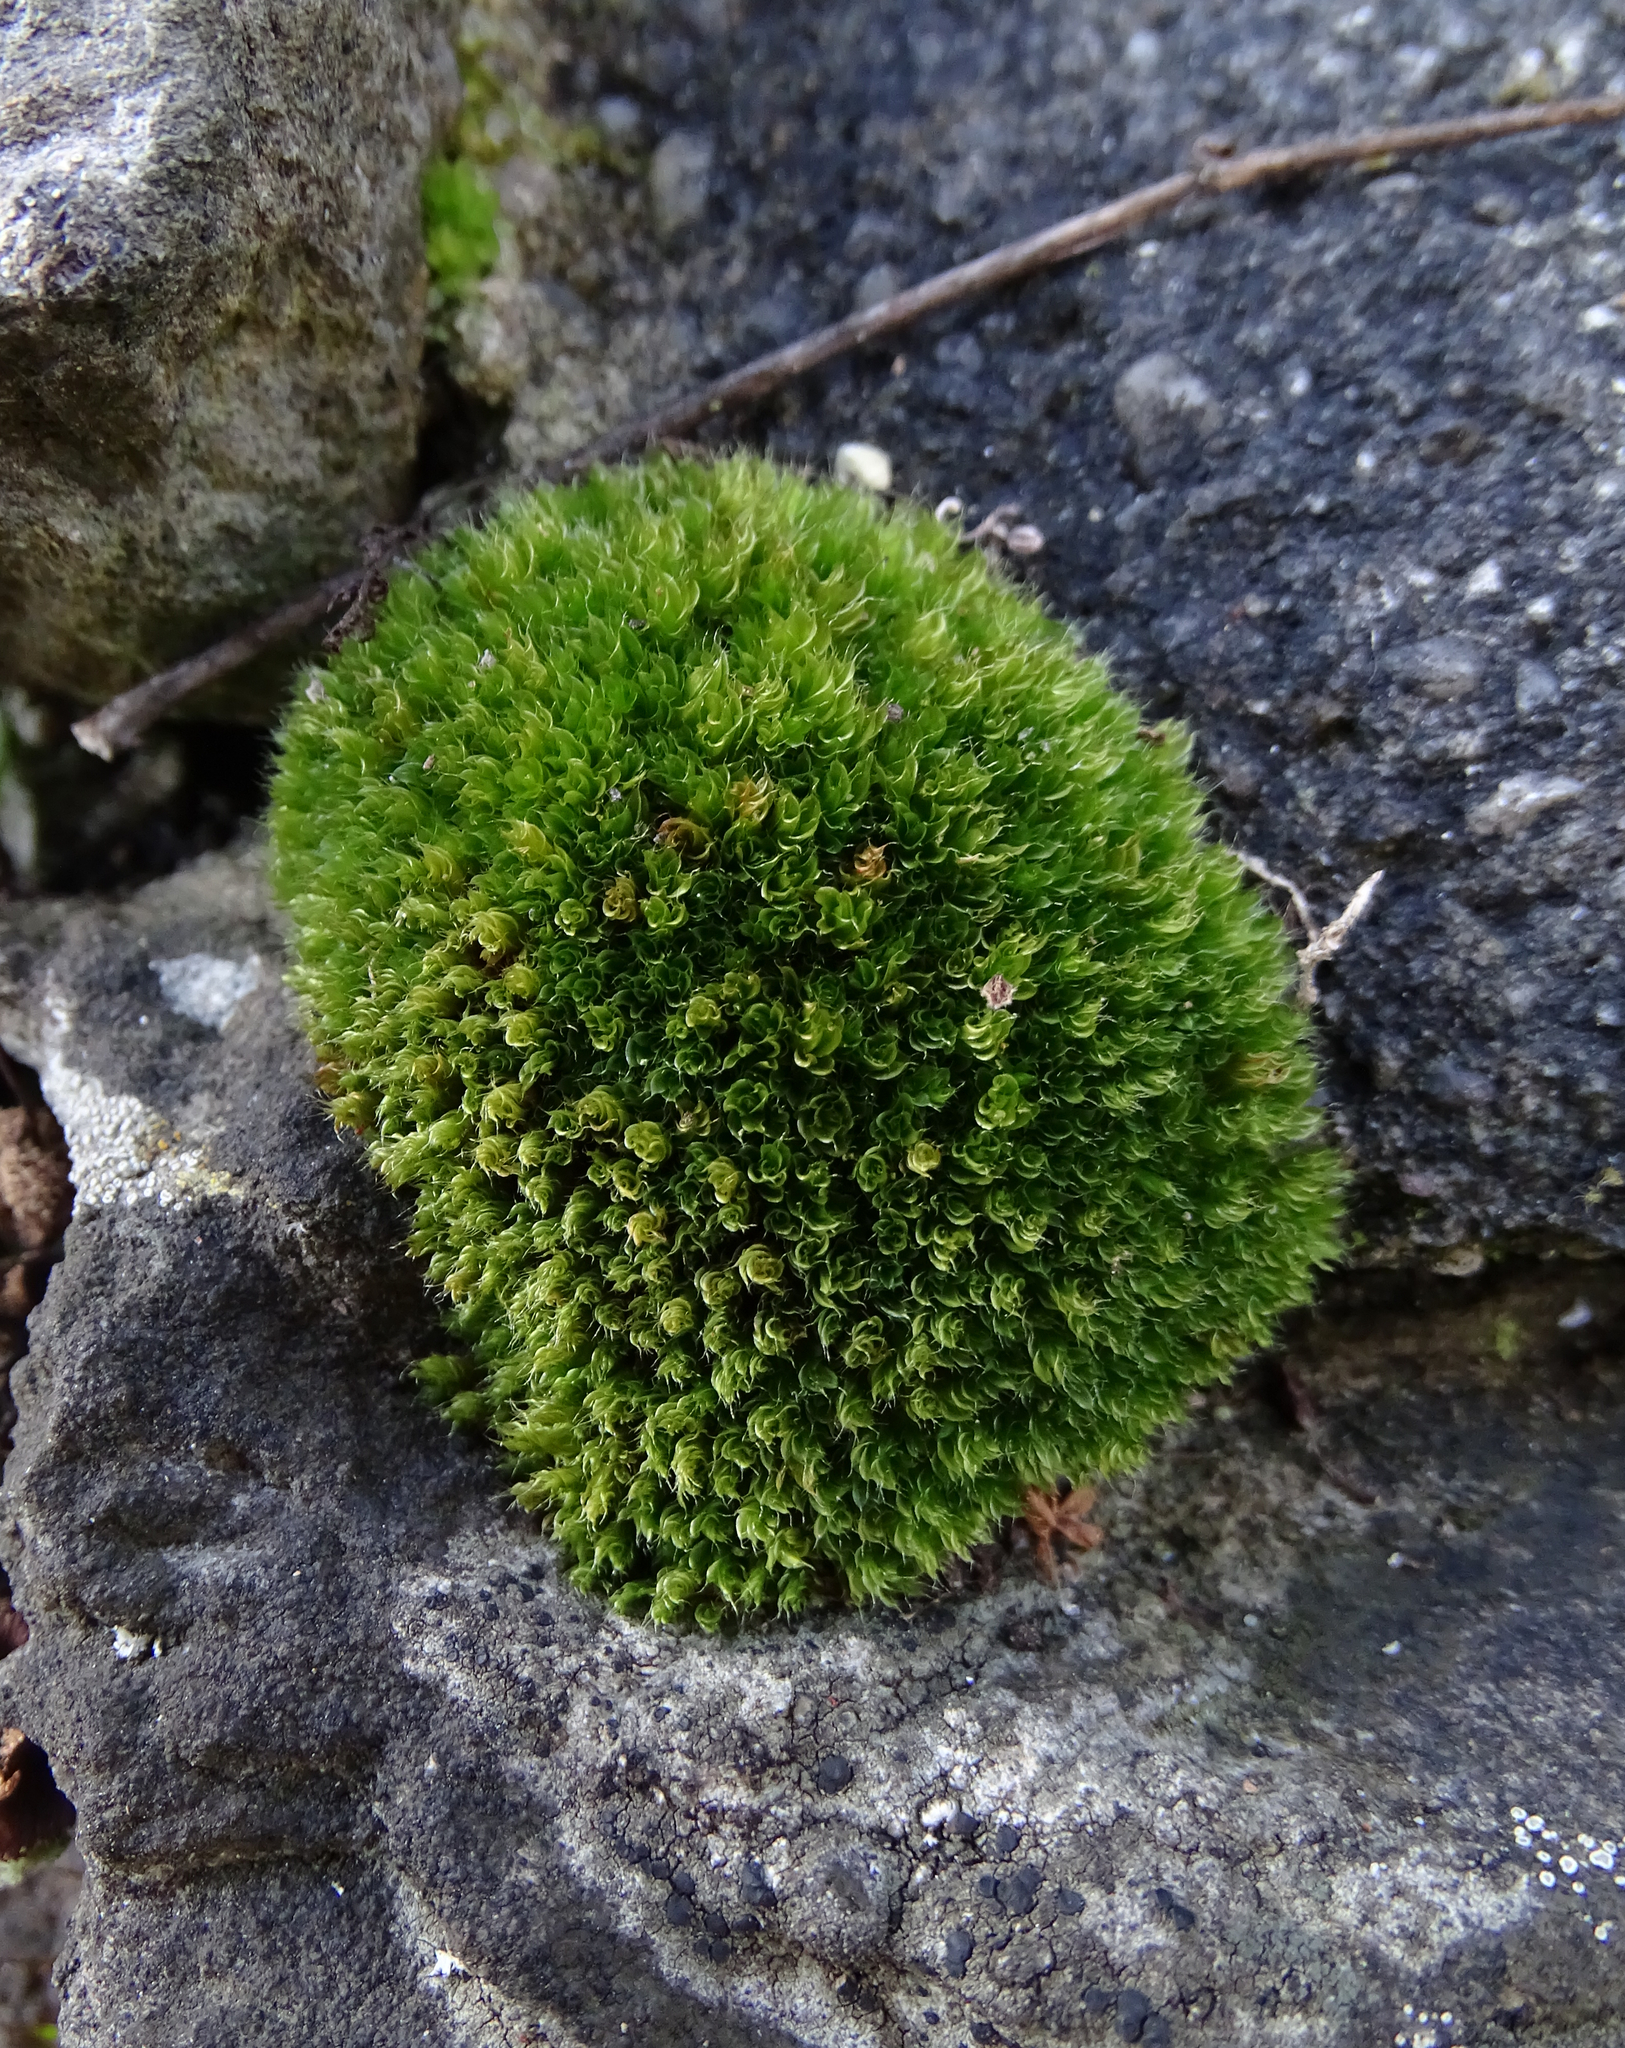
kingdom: Plantae
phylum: Bryophyta
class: Bryopsida
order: Bryales
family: Bryaceae
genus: Rosulabryum
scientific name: Rosulabryum capillare
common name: Capillary thread-moss
